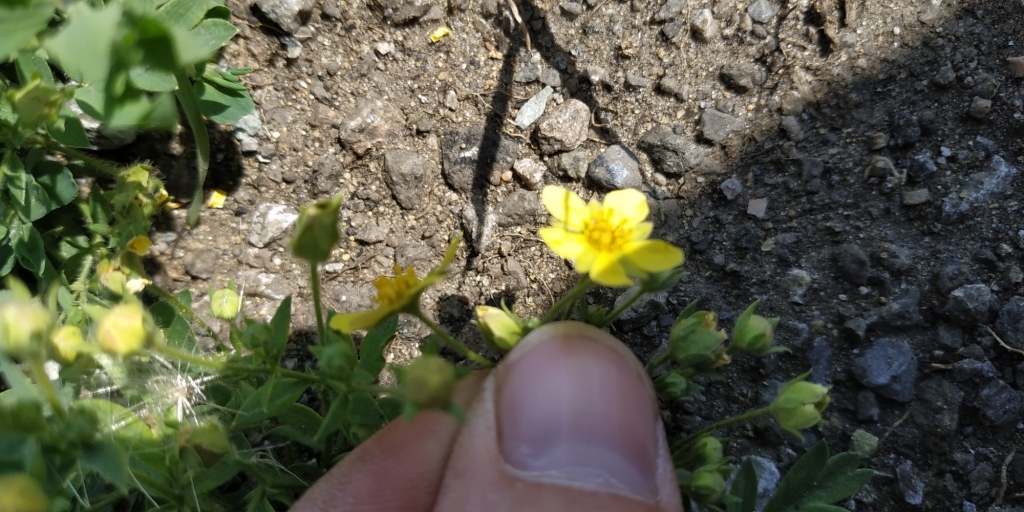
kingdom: Plantae
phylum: Tracheophyta
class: Magnoliopsida
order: Rosales
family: Rosaceae
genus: Sibbaldianthe
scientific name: Sibbaldianthe bifurca
